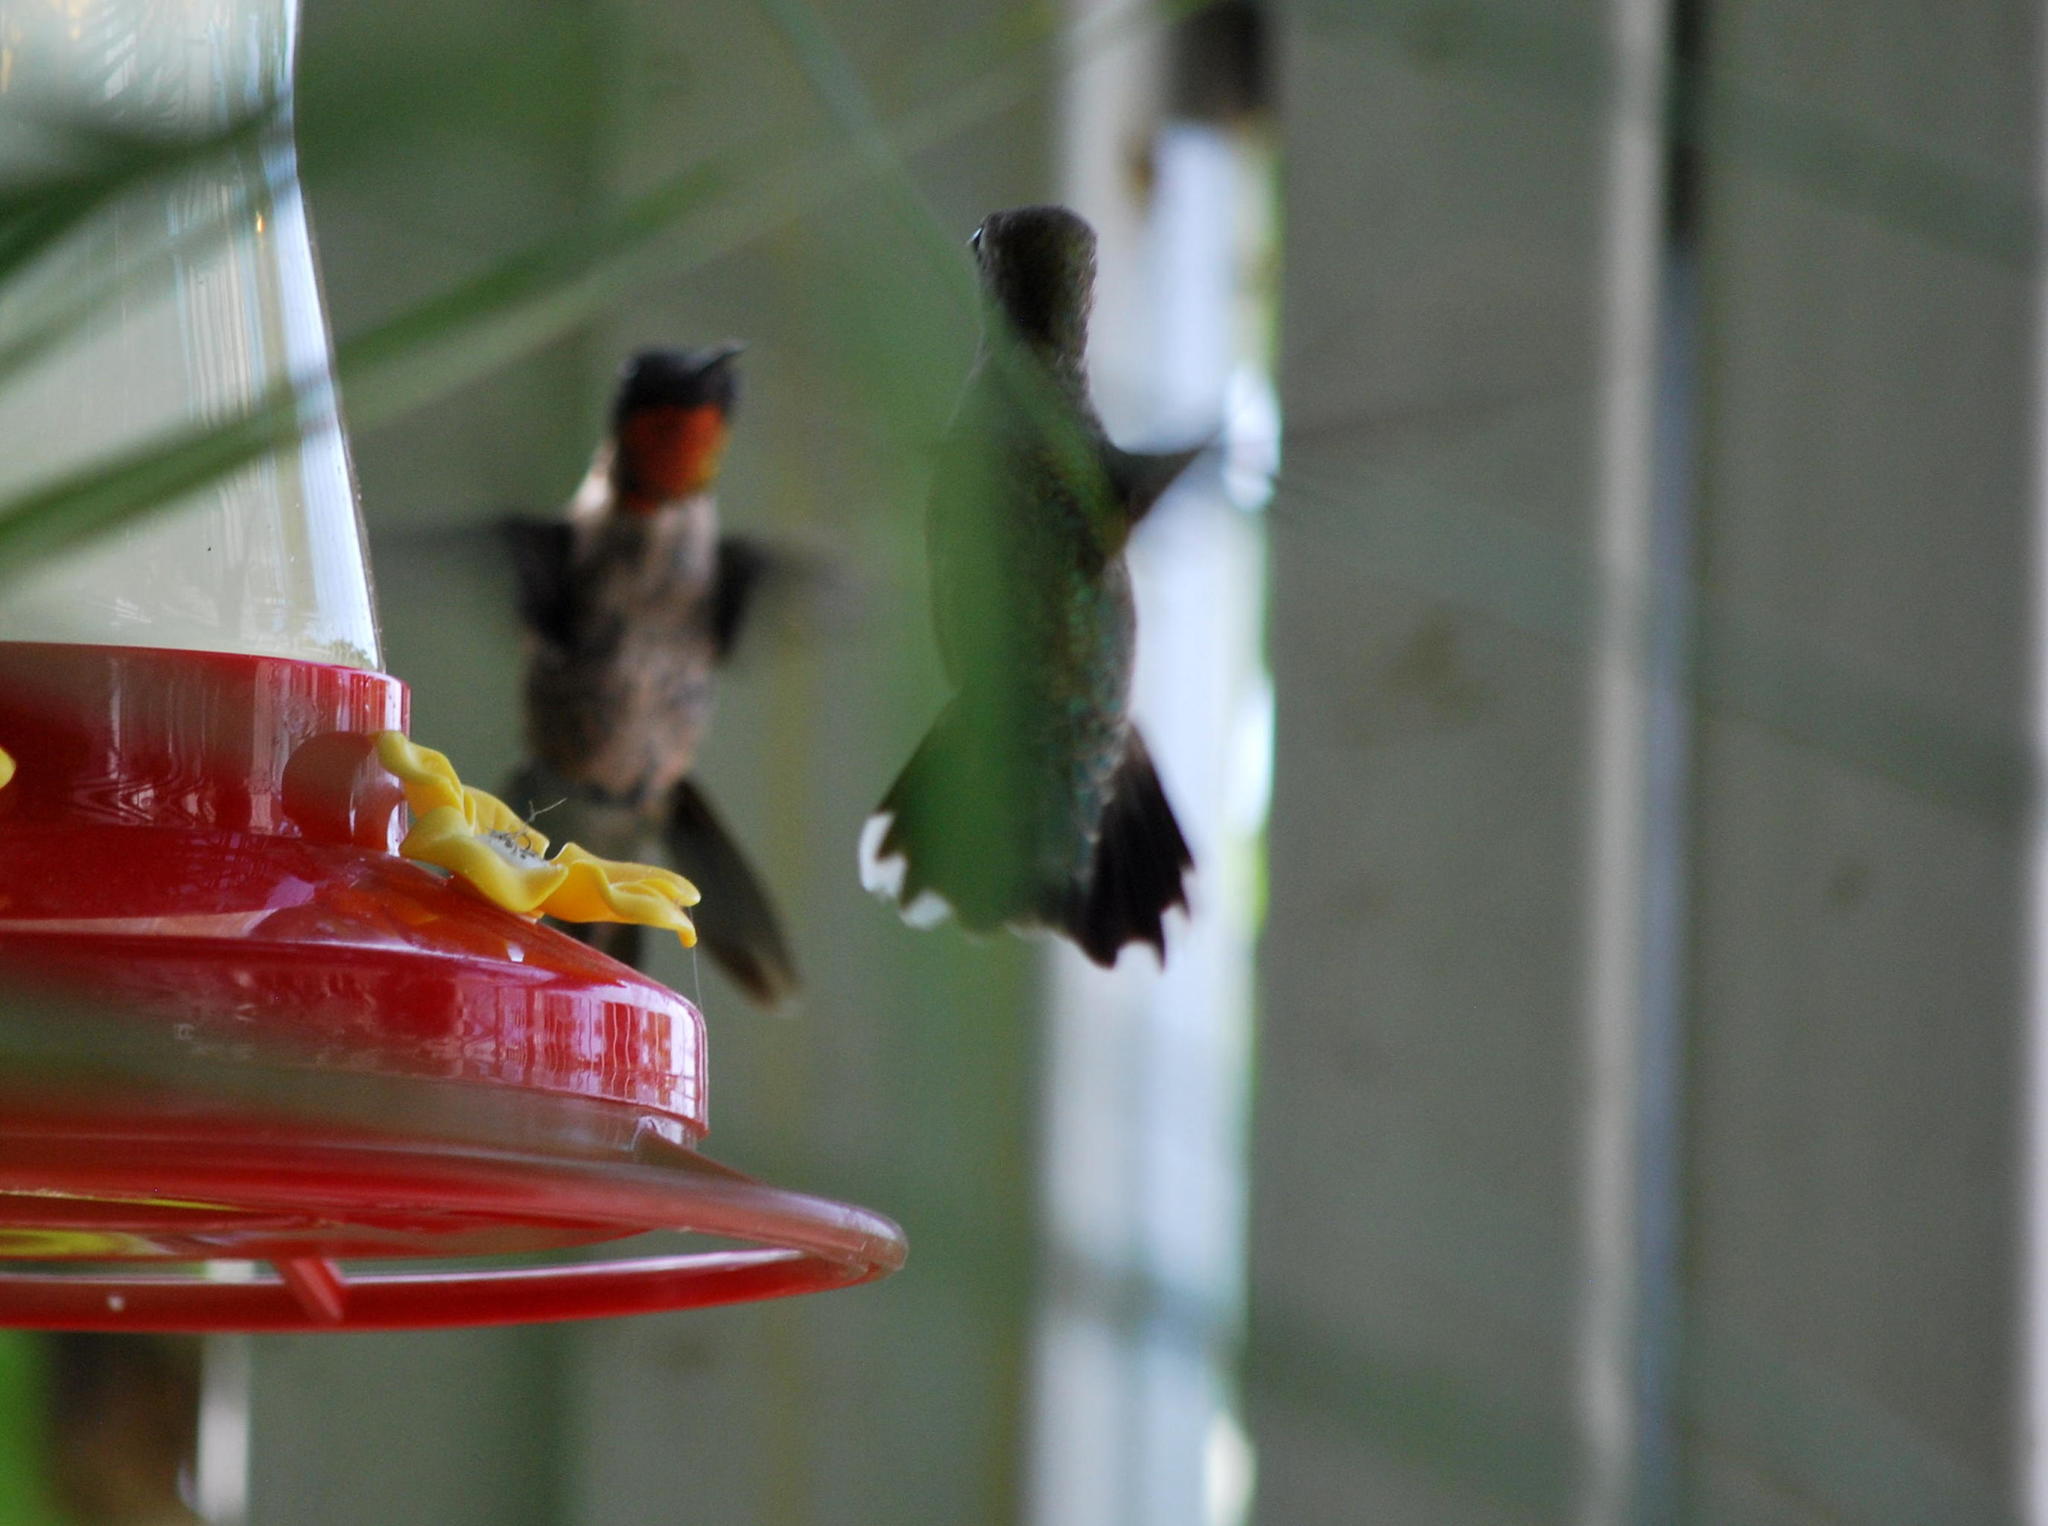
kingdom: Animalia
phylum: Chordata
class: Aves
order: Apodiformes
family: Trochilidae
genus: Archilochus
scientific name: Archilochus colubris
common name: Ruby-throated hummingbird
